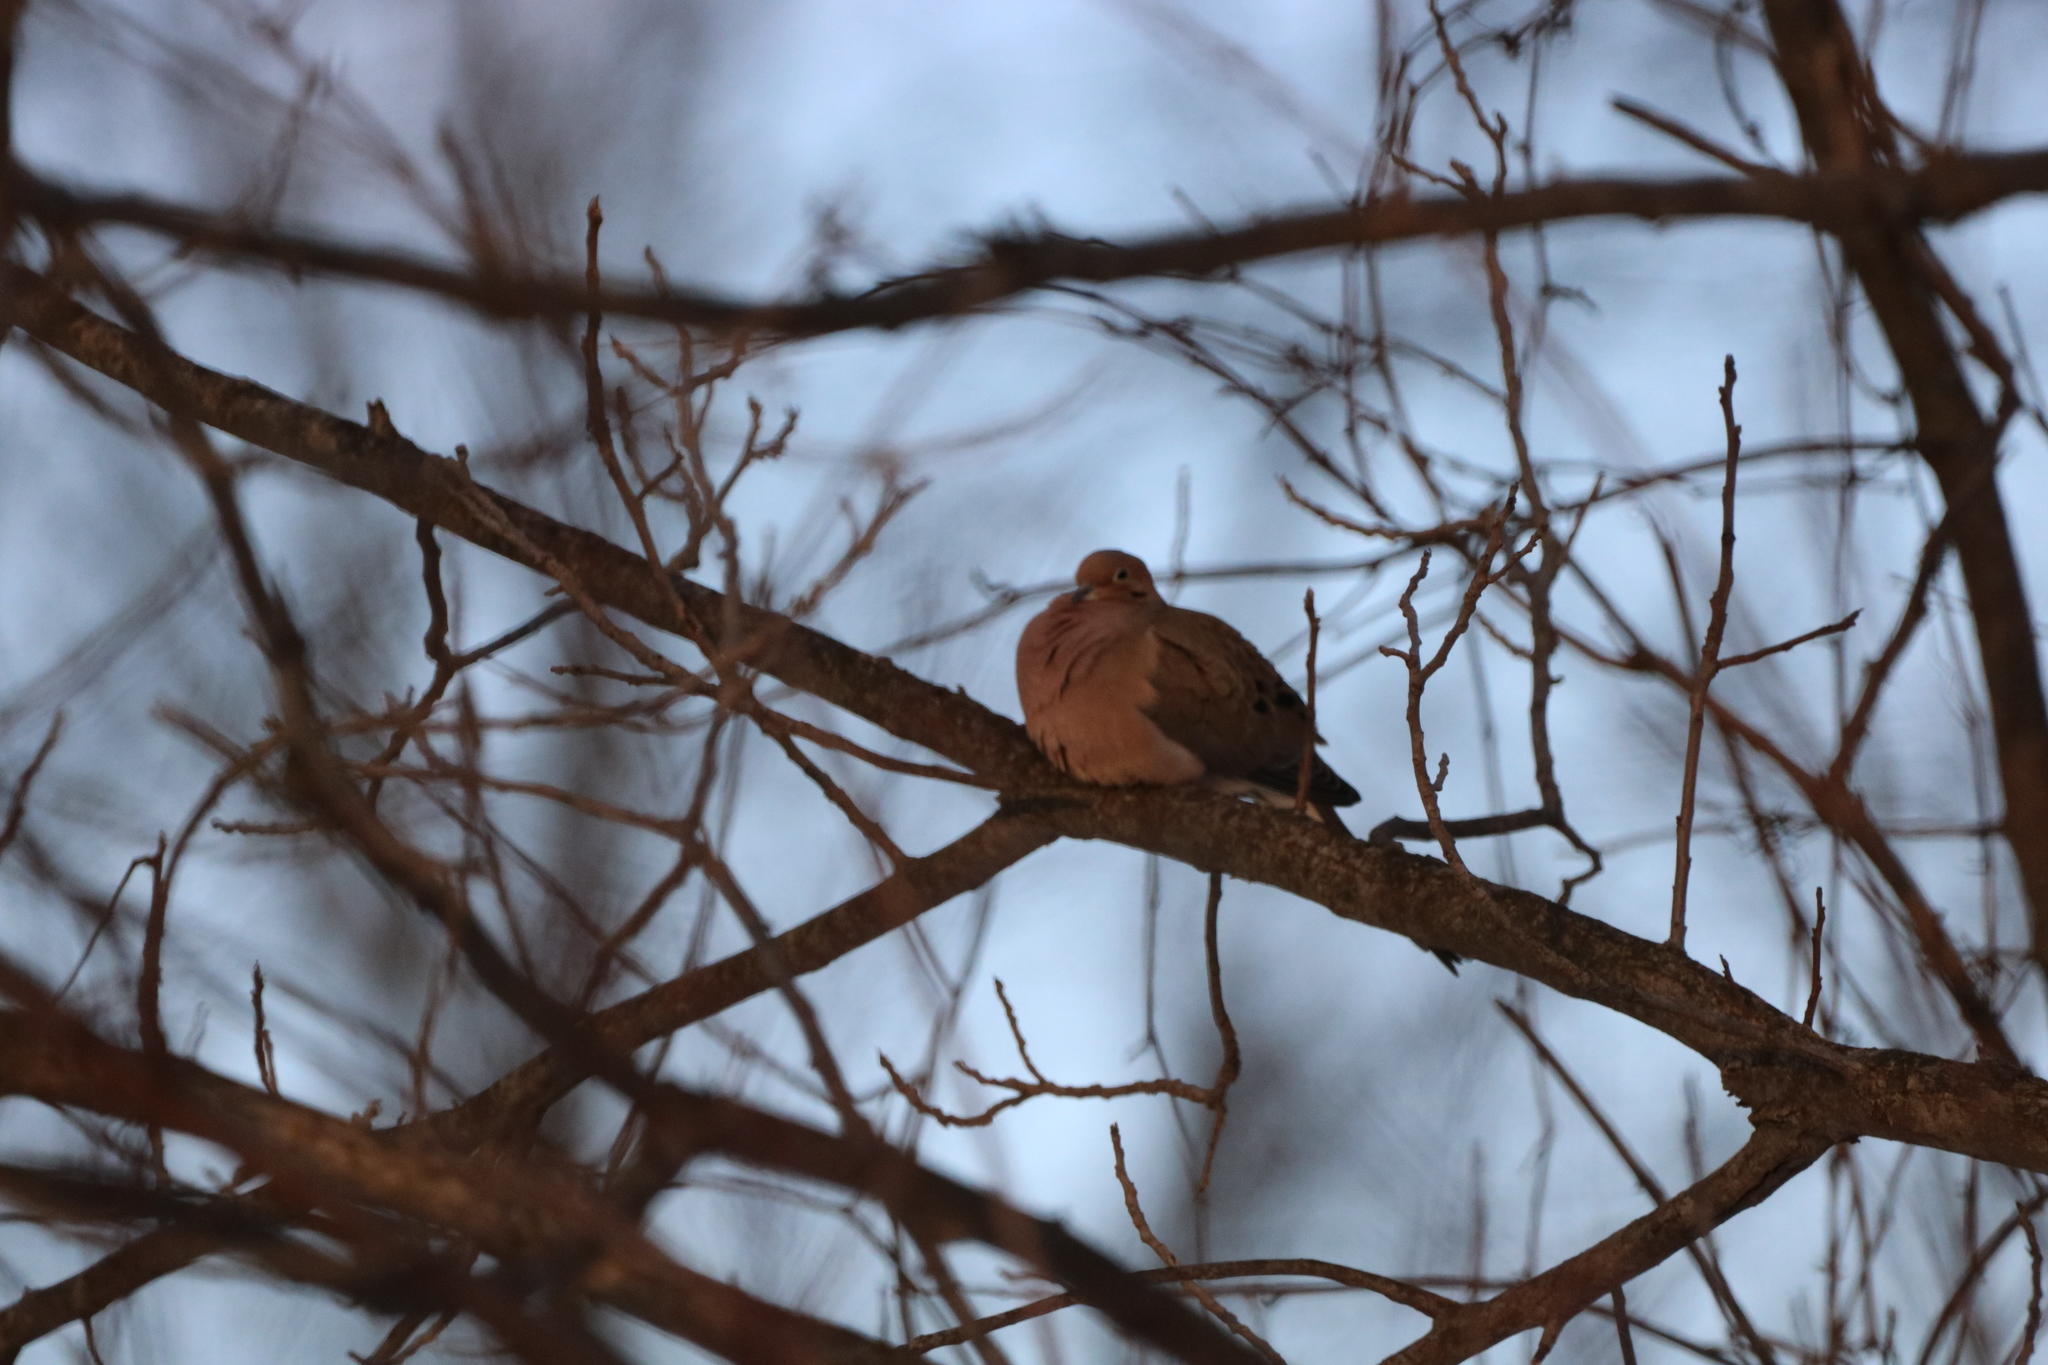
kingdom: Animalia
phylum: Chordata
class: Aves
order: Columbiformes
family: Columbidae
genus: Zenaida
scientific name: Zenaida macroura
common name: Mourning dove
